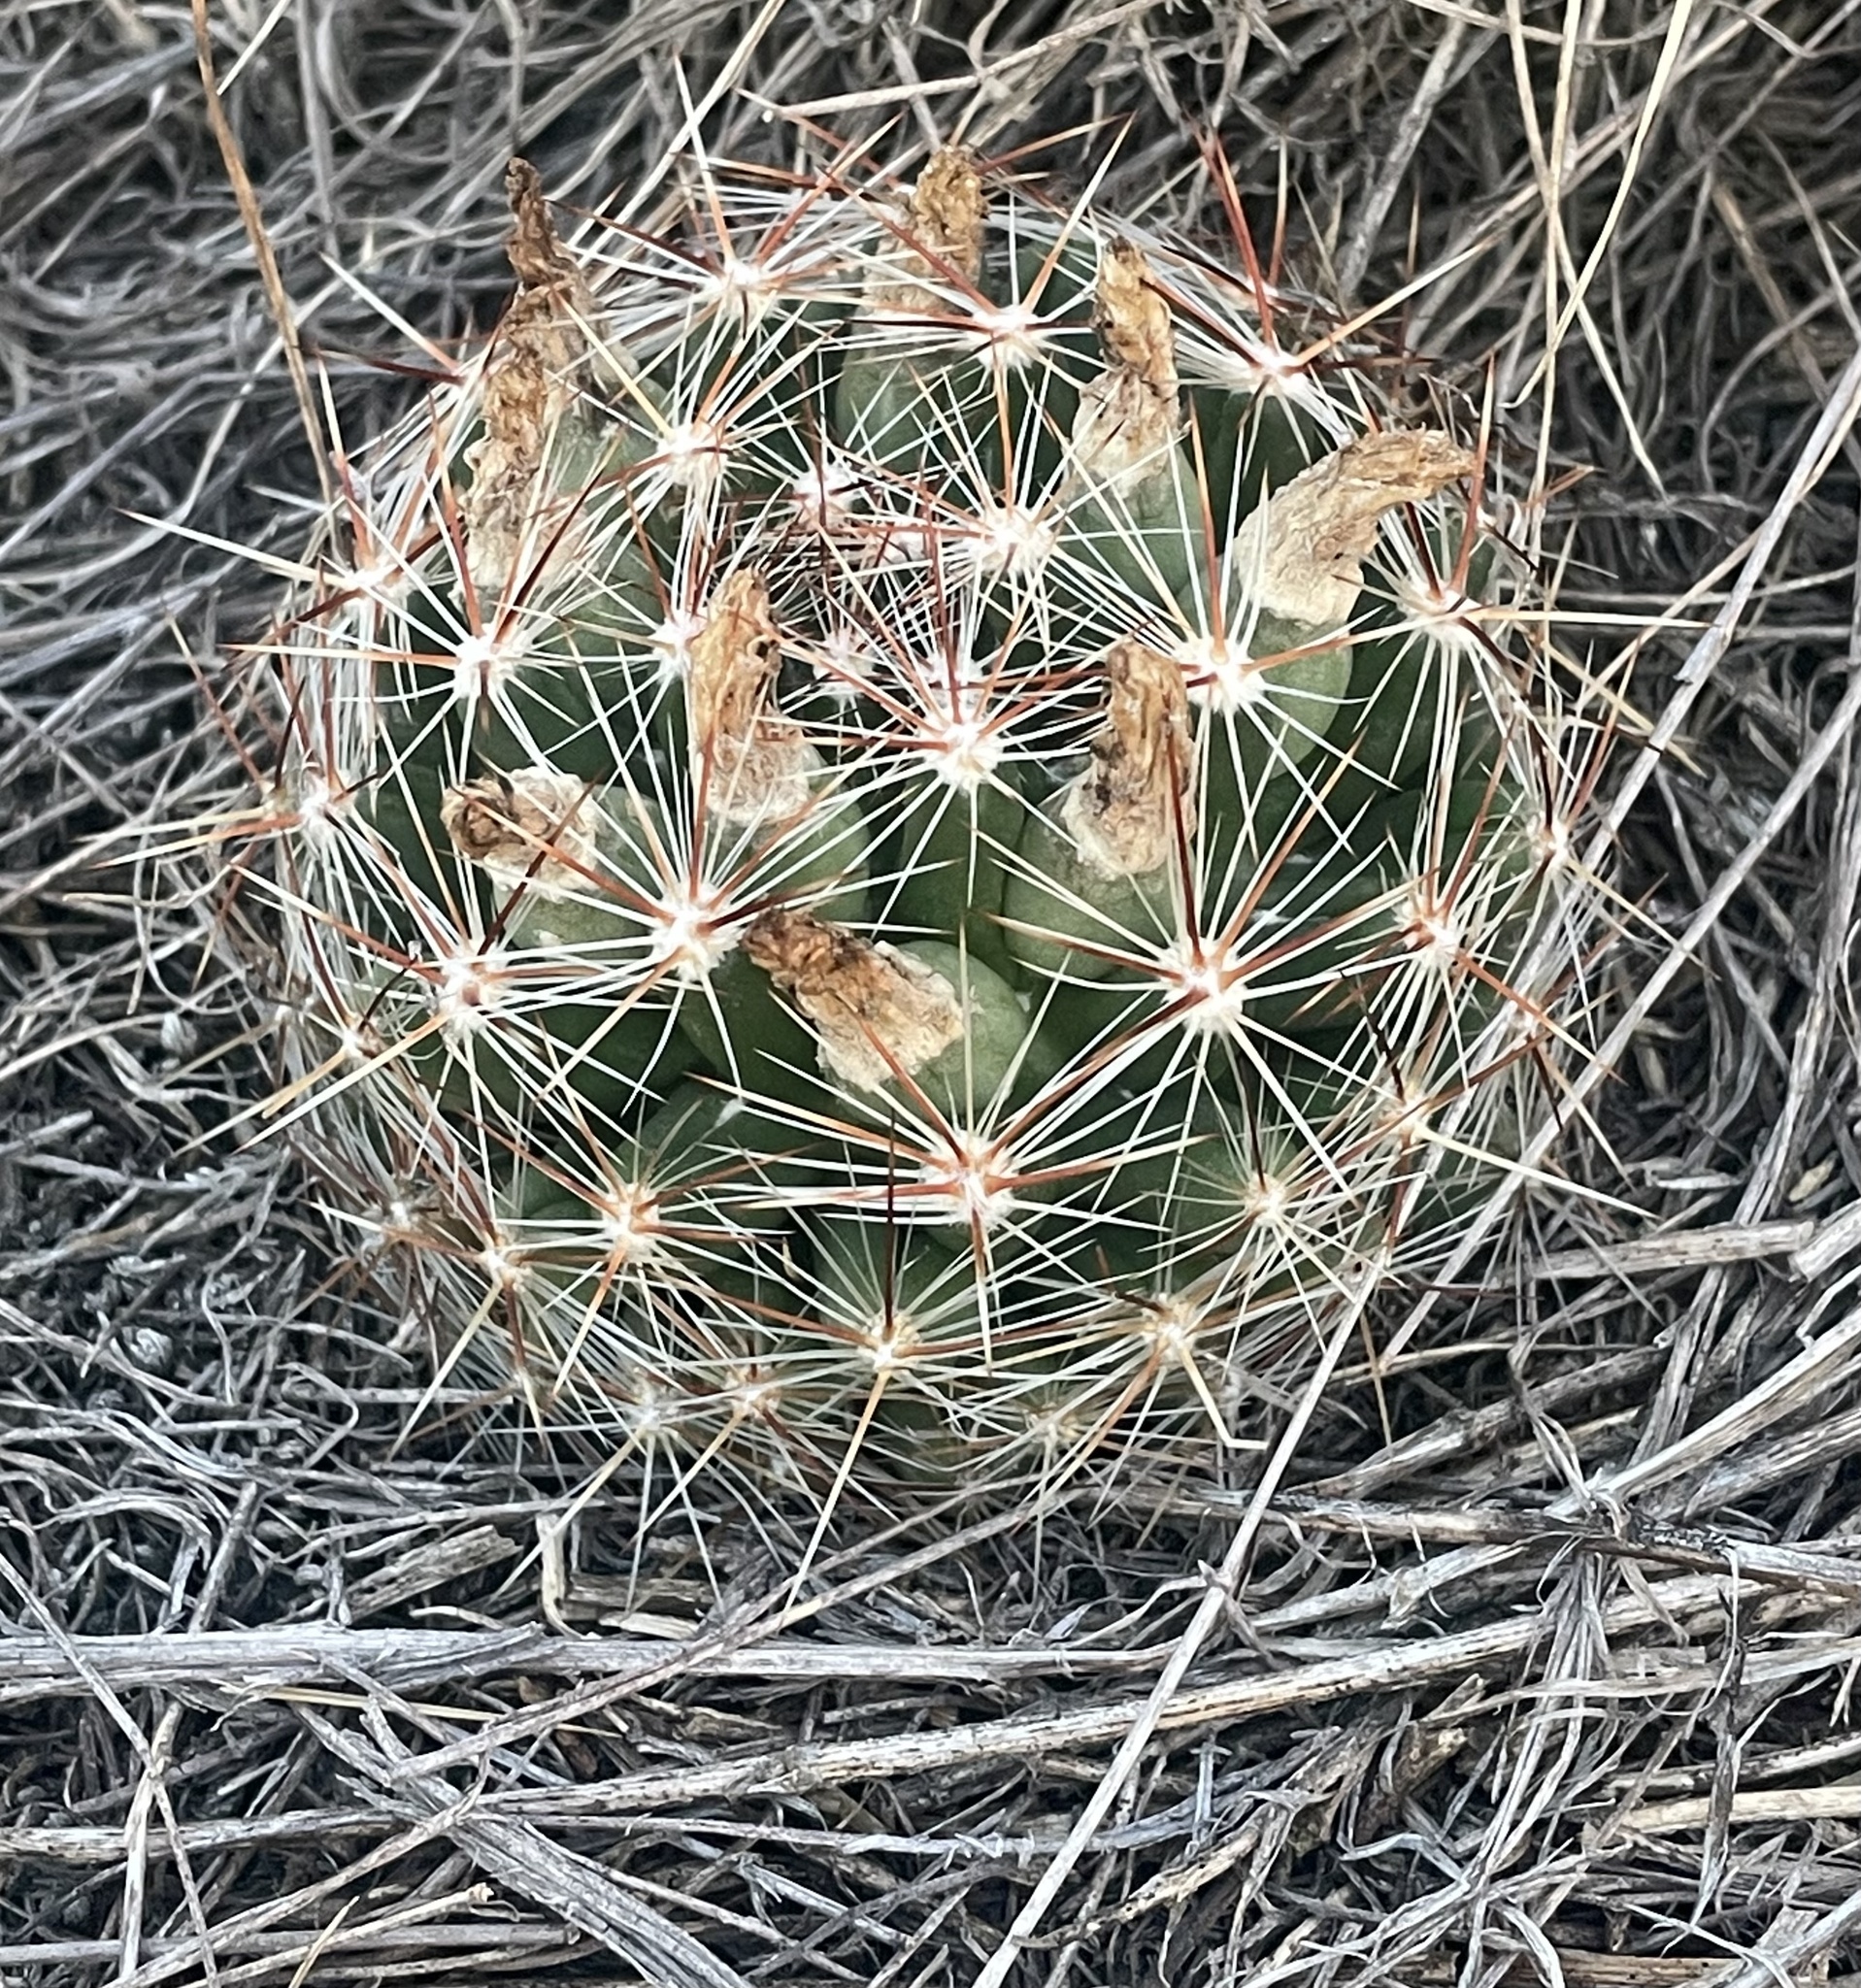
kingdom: Plantae
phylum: Tracheophyta
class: Magnoliopsida
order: Caryophyllales
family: Cactaceae
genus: Pelecyphora
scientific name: Pelecyphora vivipara
